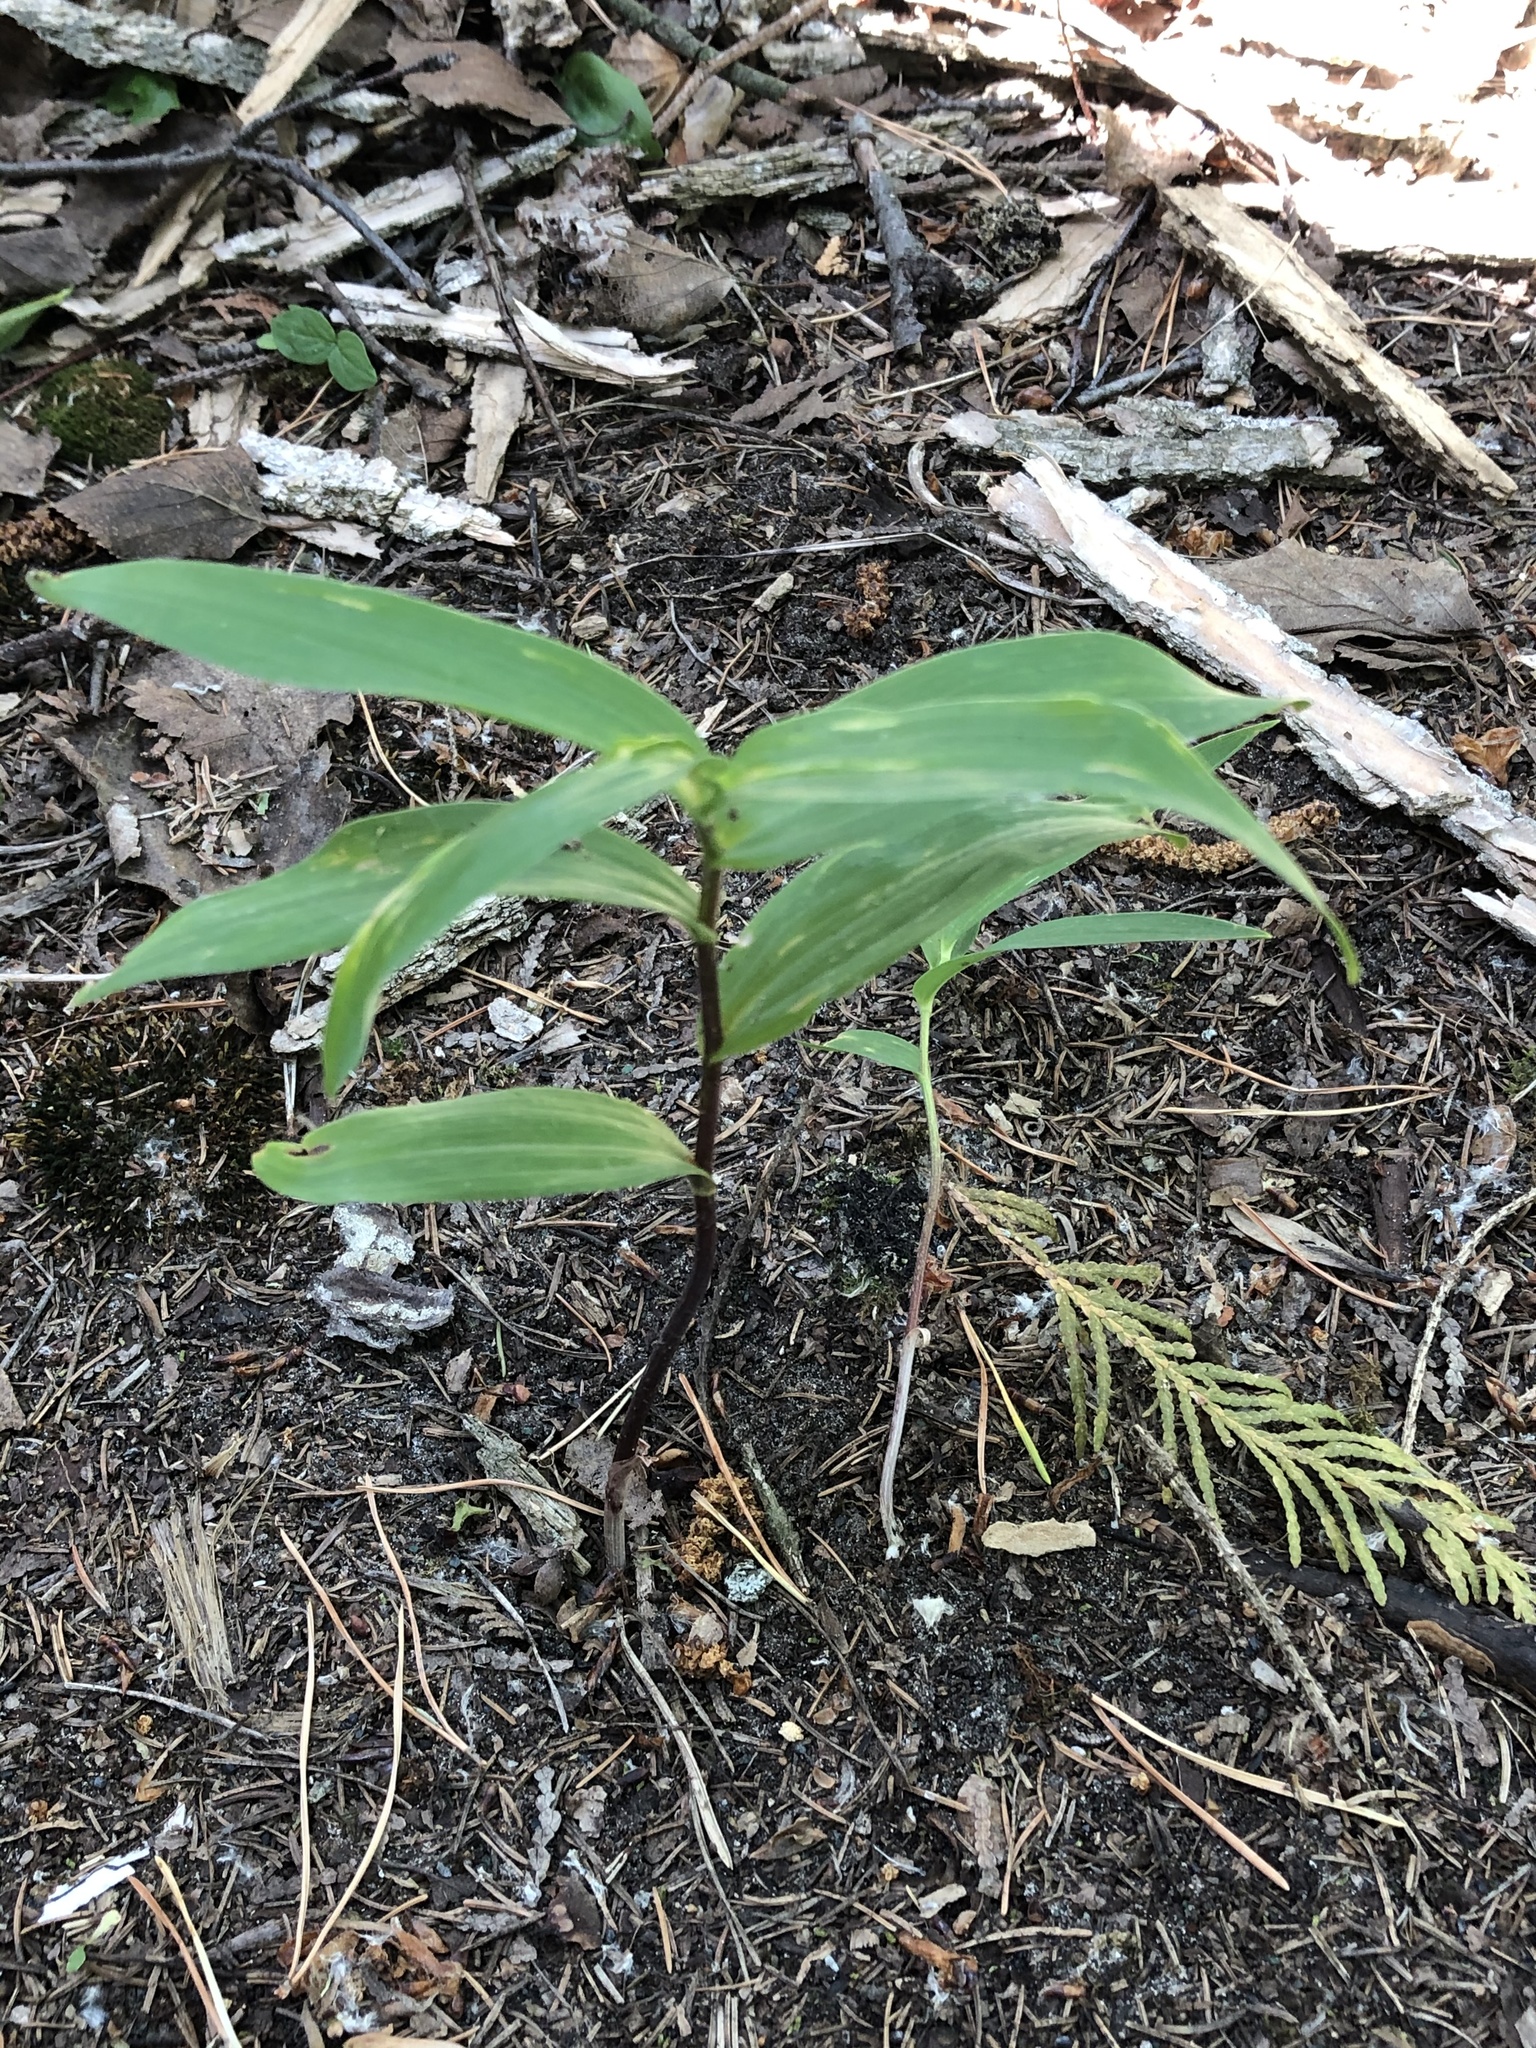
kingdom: Plantae
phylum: Tracheophyta
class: Liliopsida
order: Asparagales
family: Asparagaceae
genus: Maianthemum
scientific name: Maianthemum stellatum
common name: Little false solomon's seal
